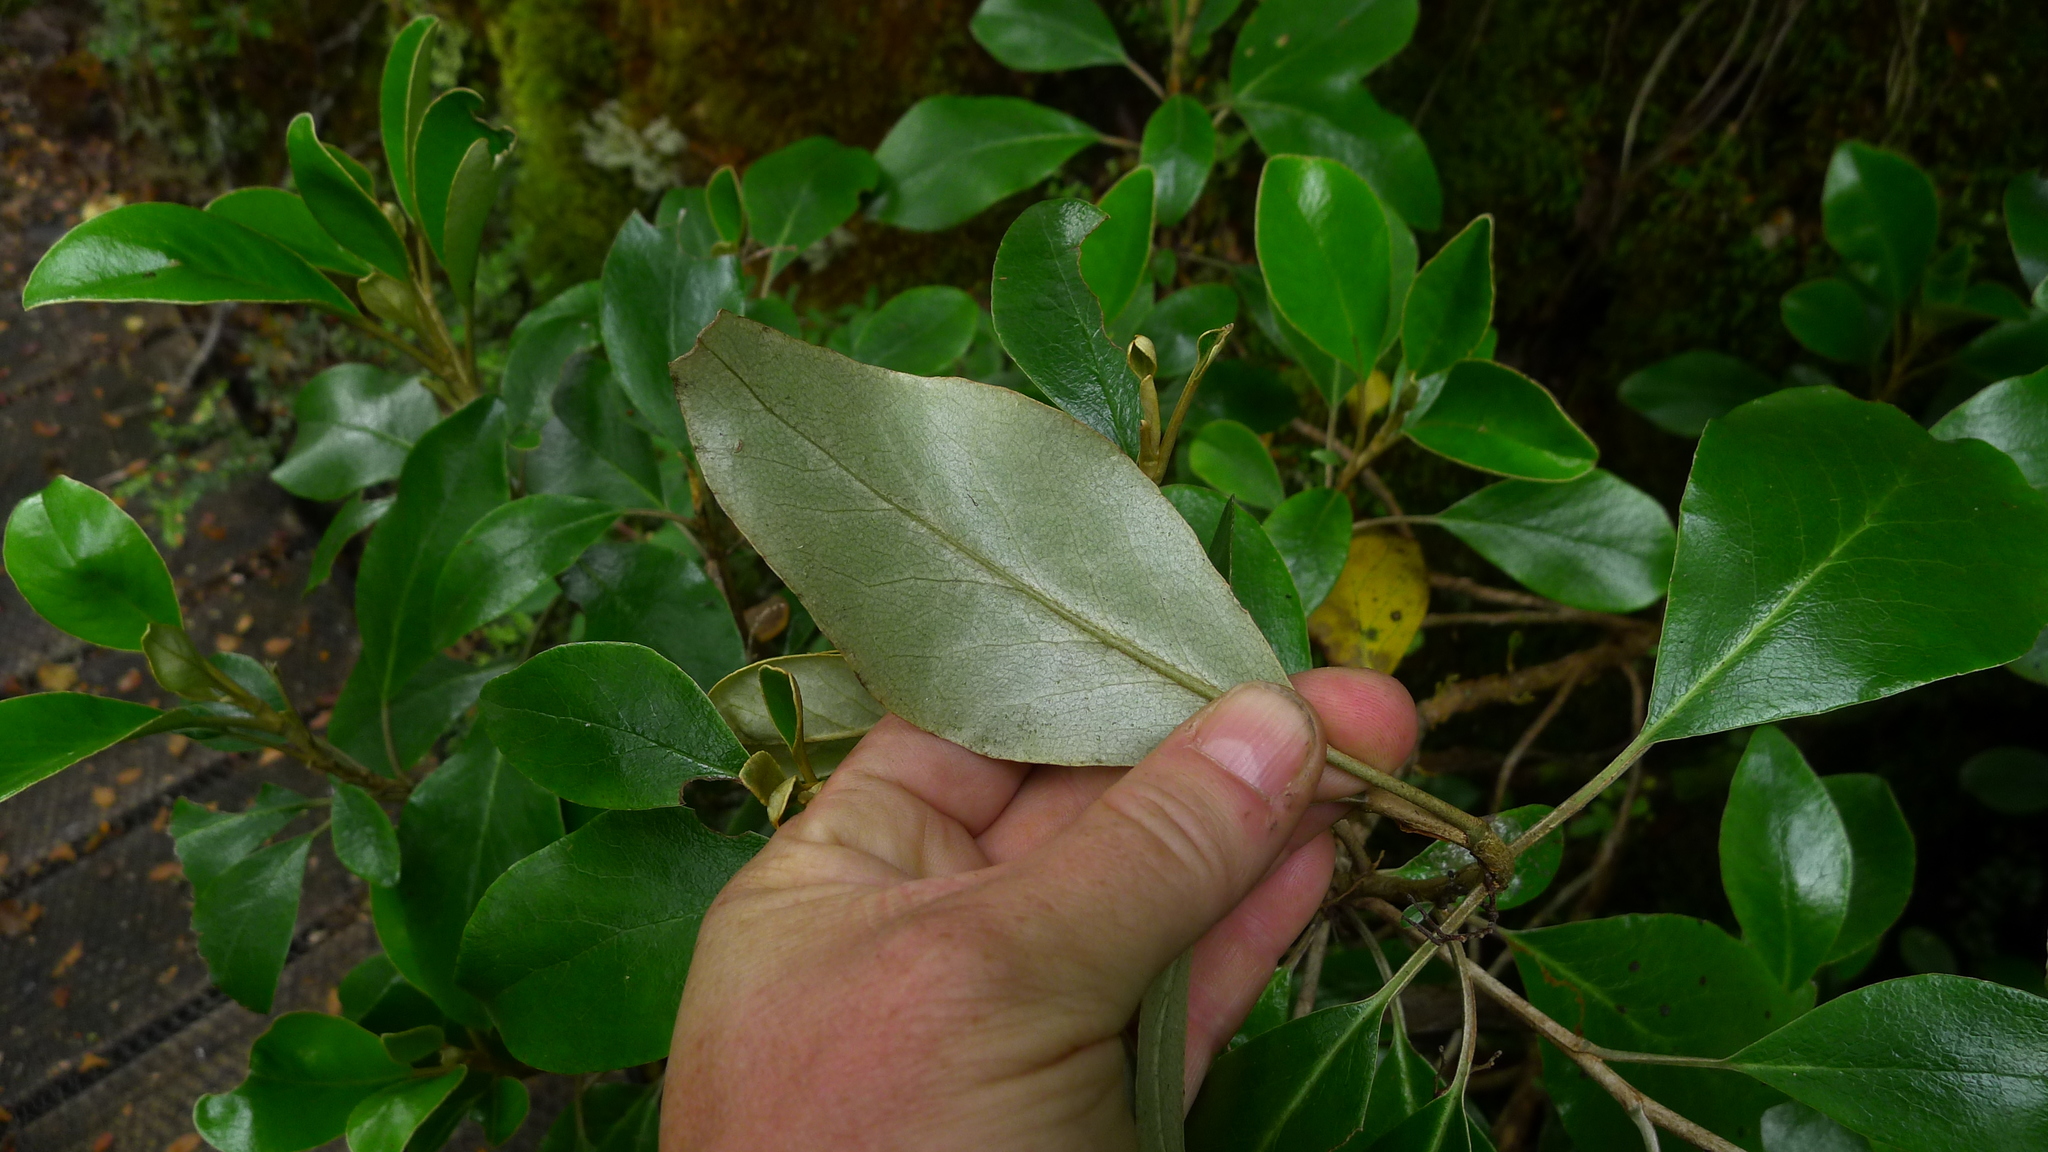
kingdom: Plantae
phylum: Tracheophyta
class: Magnoliopsida
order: Asterales
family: Asteraceae
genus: Brachyglottis
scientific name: Brachyglottis buchananii
